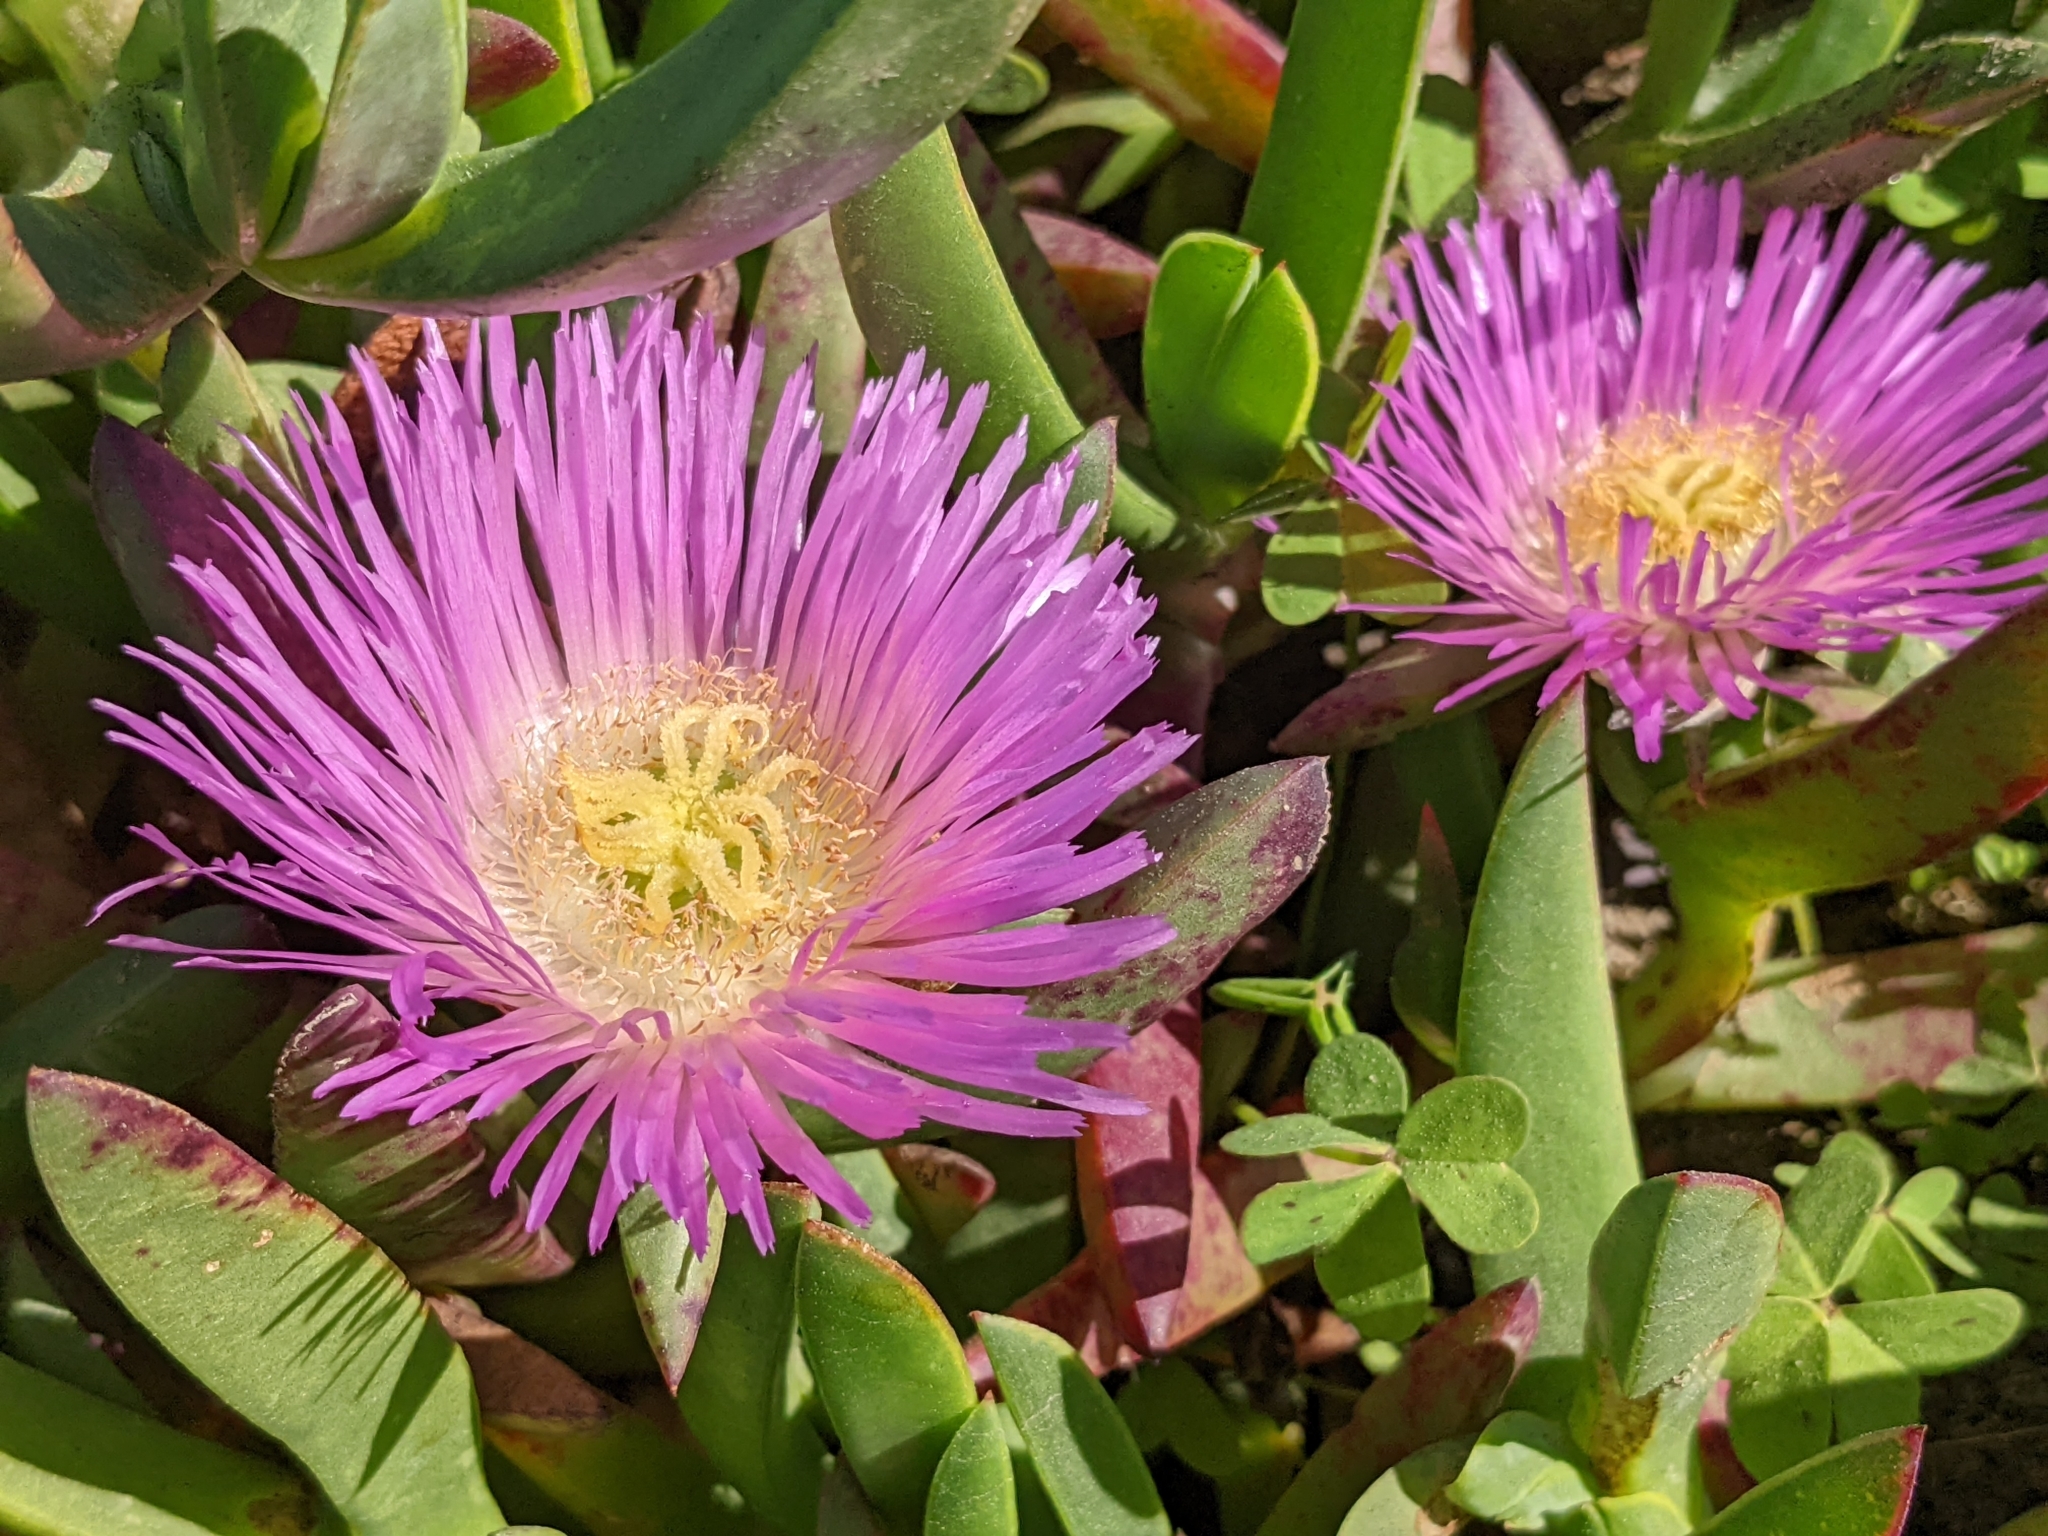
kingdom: Plantae
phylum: Tracheophyta
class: Magnoliopsida
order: Caryophyllales
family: Aizoaceae
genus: Carpobrotus
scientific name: Carpobrotus chilensis
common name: Sea fig
